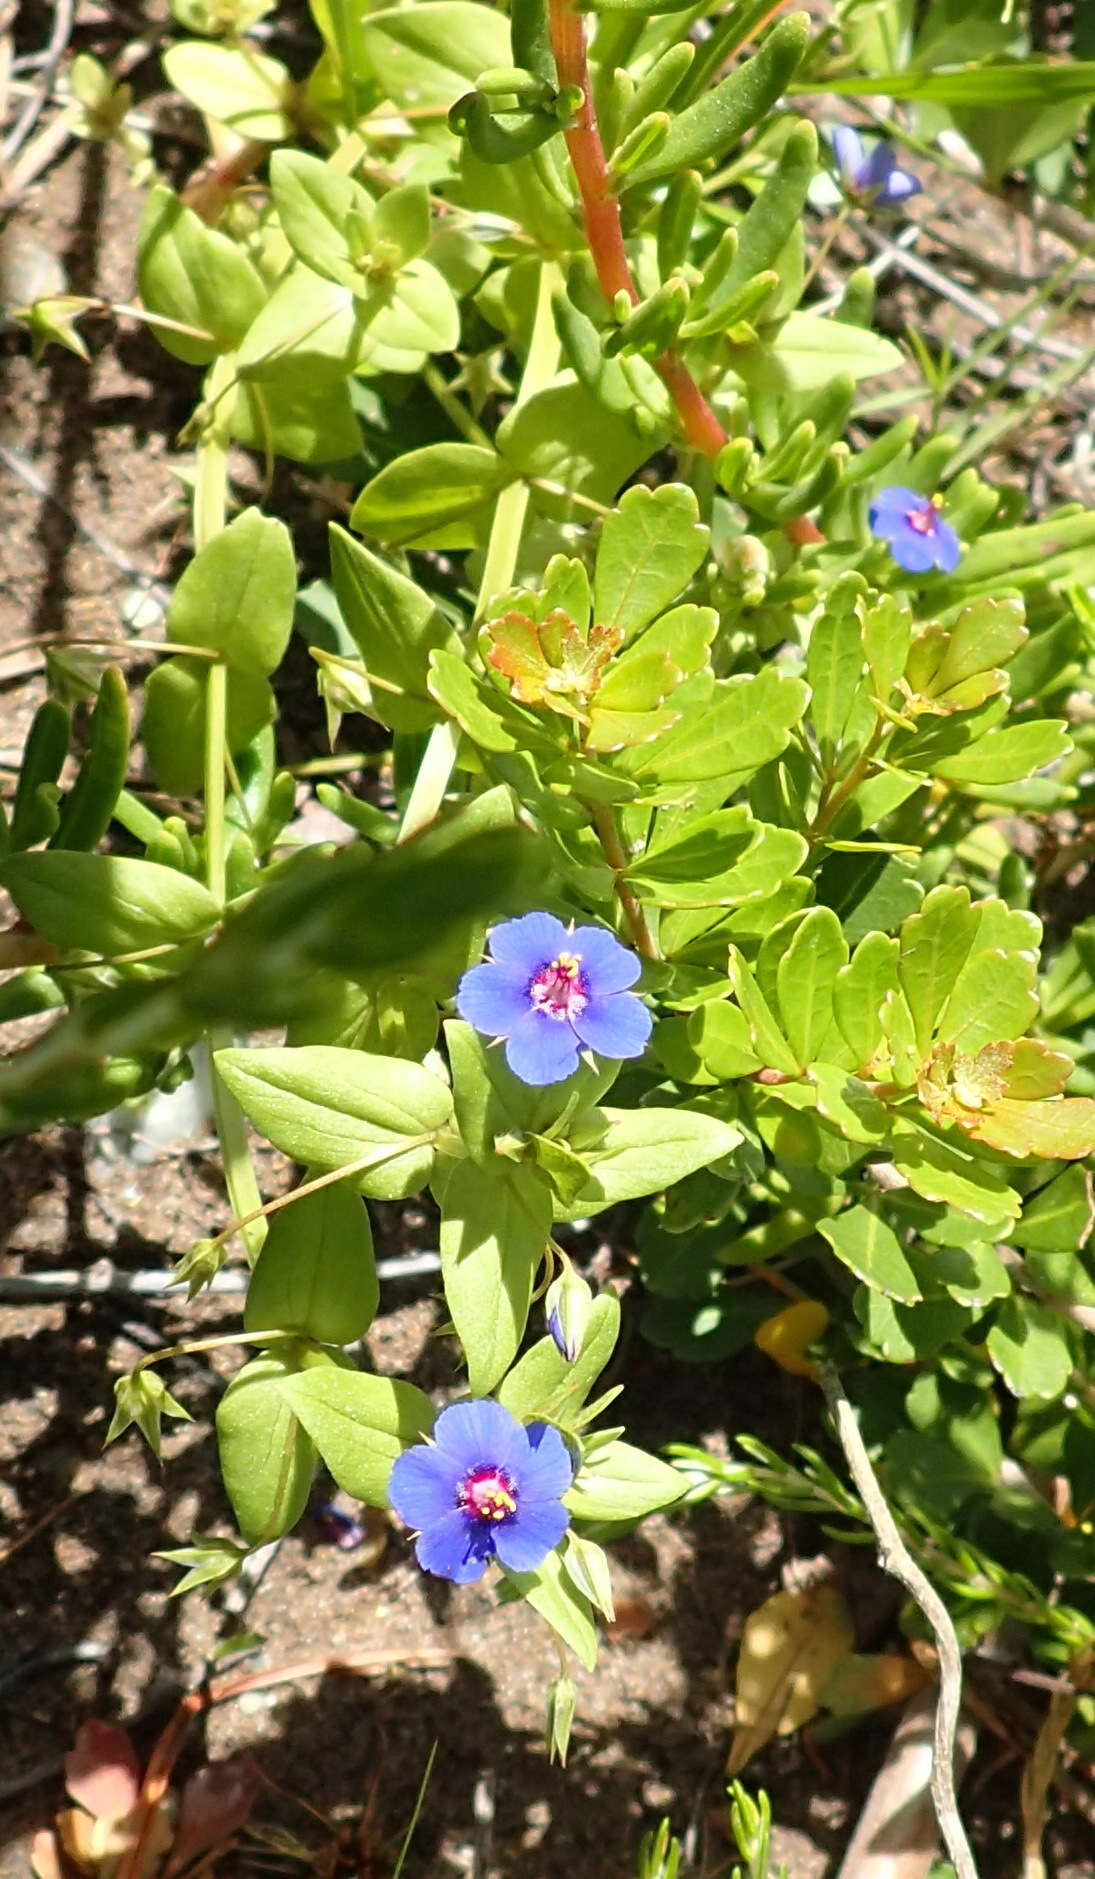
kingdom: Plantae
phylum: Tracheophyta
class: Magnoliopsida
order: Ericales
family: Primulaceae
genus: Lysimachia
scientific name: Lysimachia loeflingii
